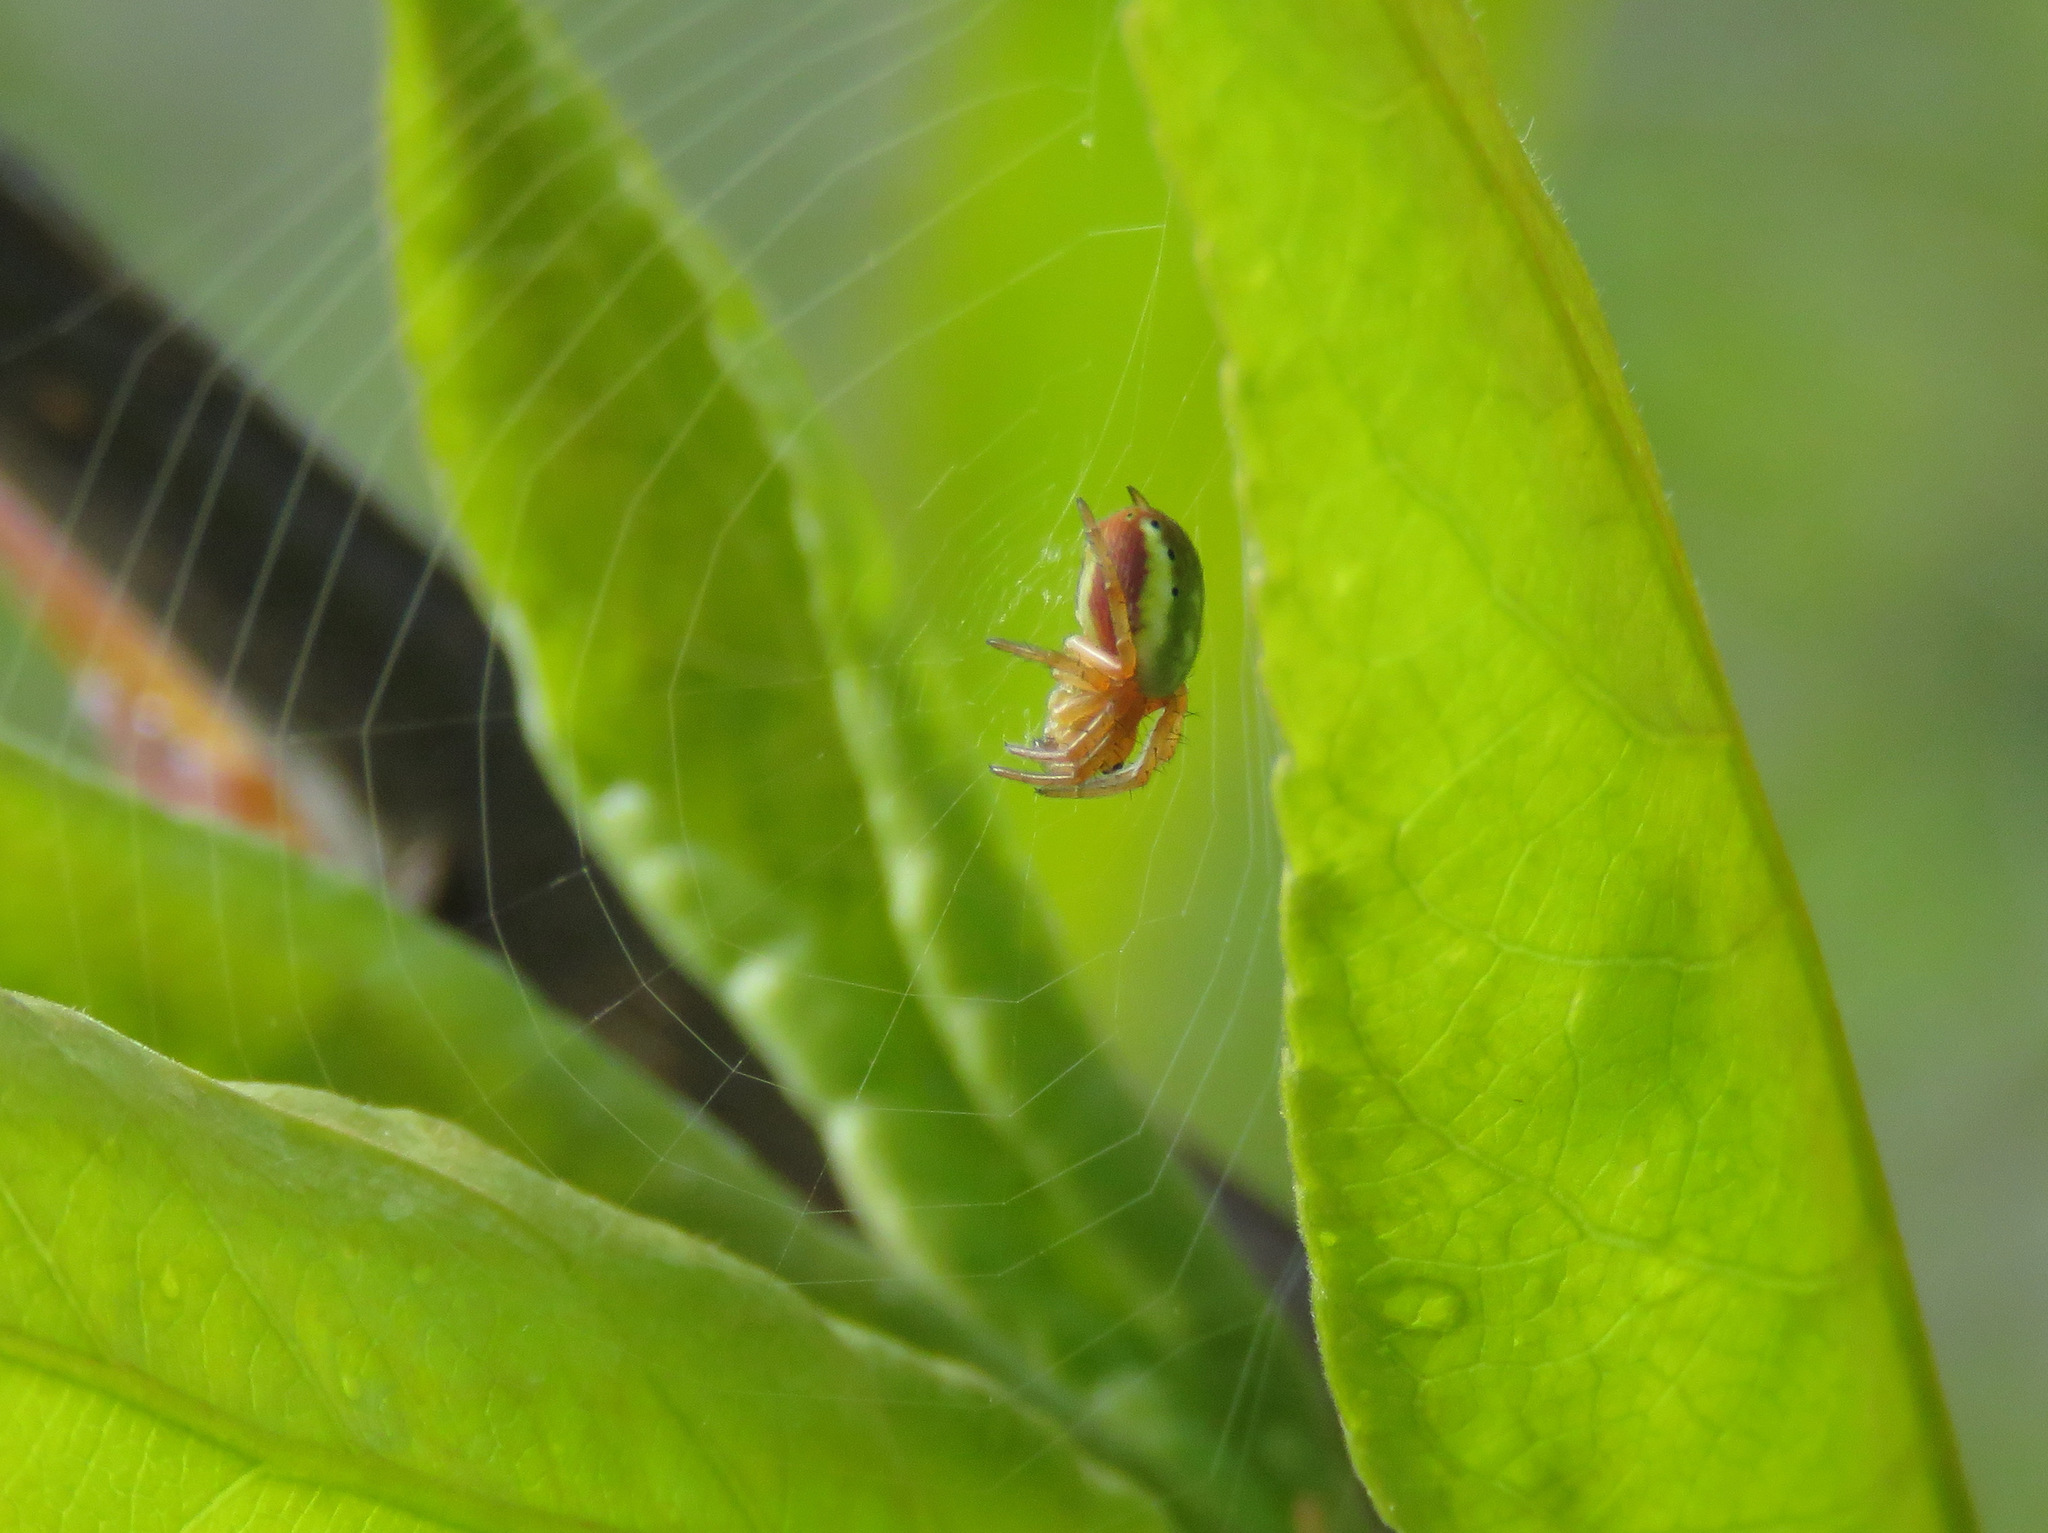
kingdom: Animalia
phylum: Arthropoda
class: Arachnida
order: Araneae
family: Araneidae
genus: Araniella
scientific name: Araniella displicata
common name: Sixspotted orb weaver
